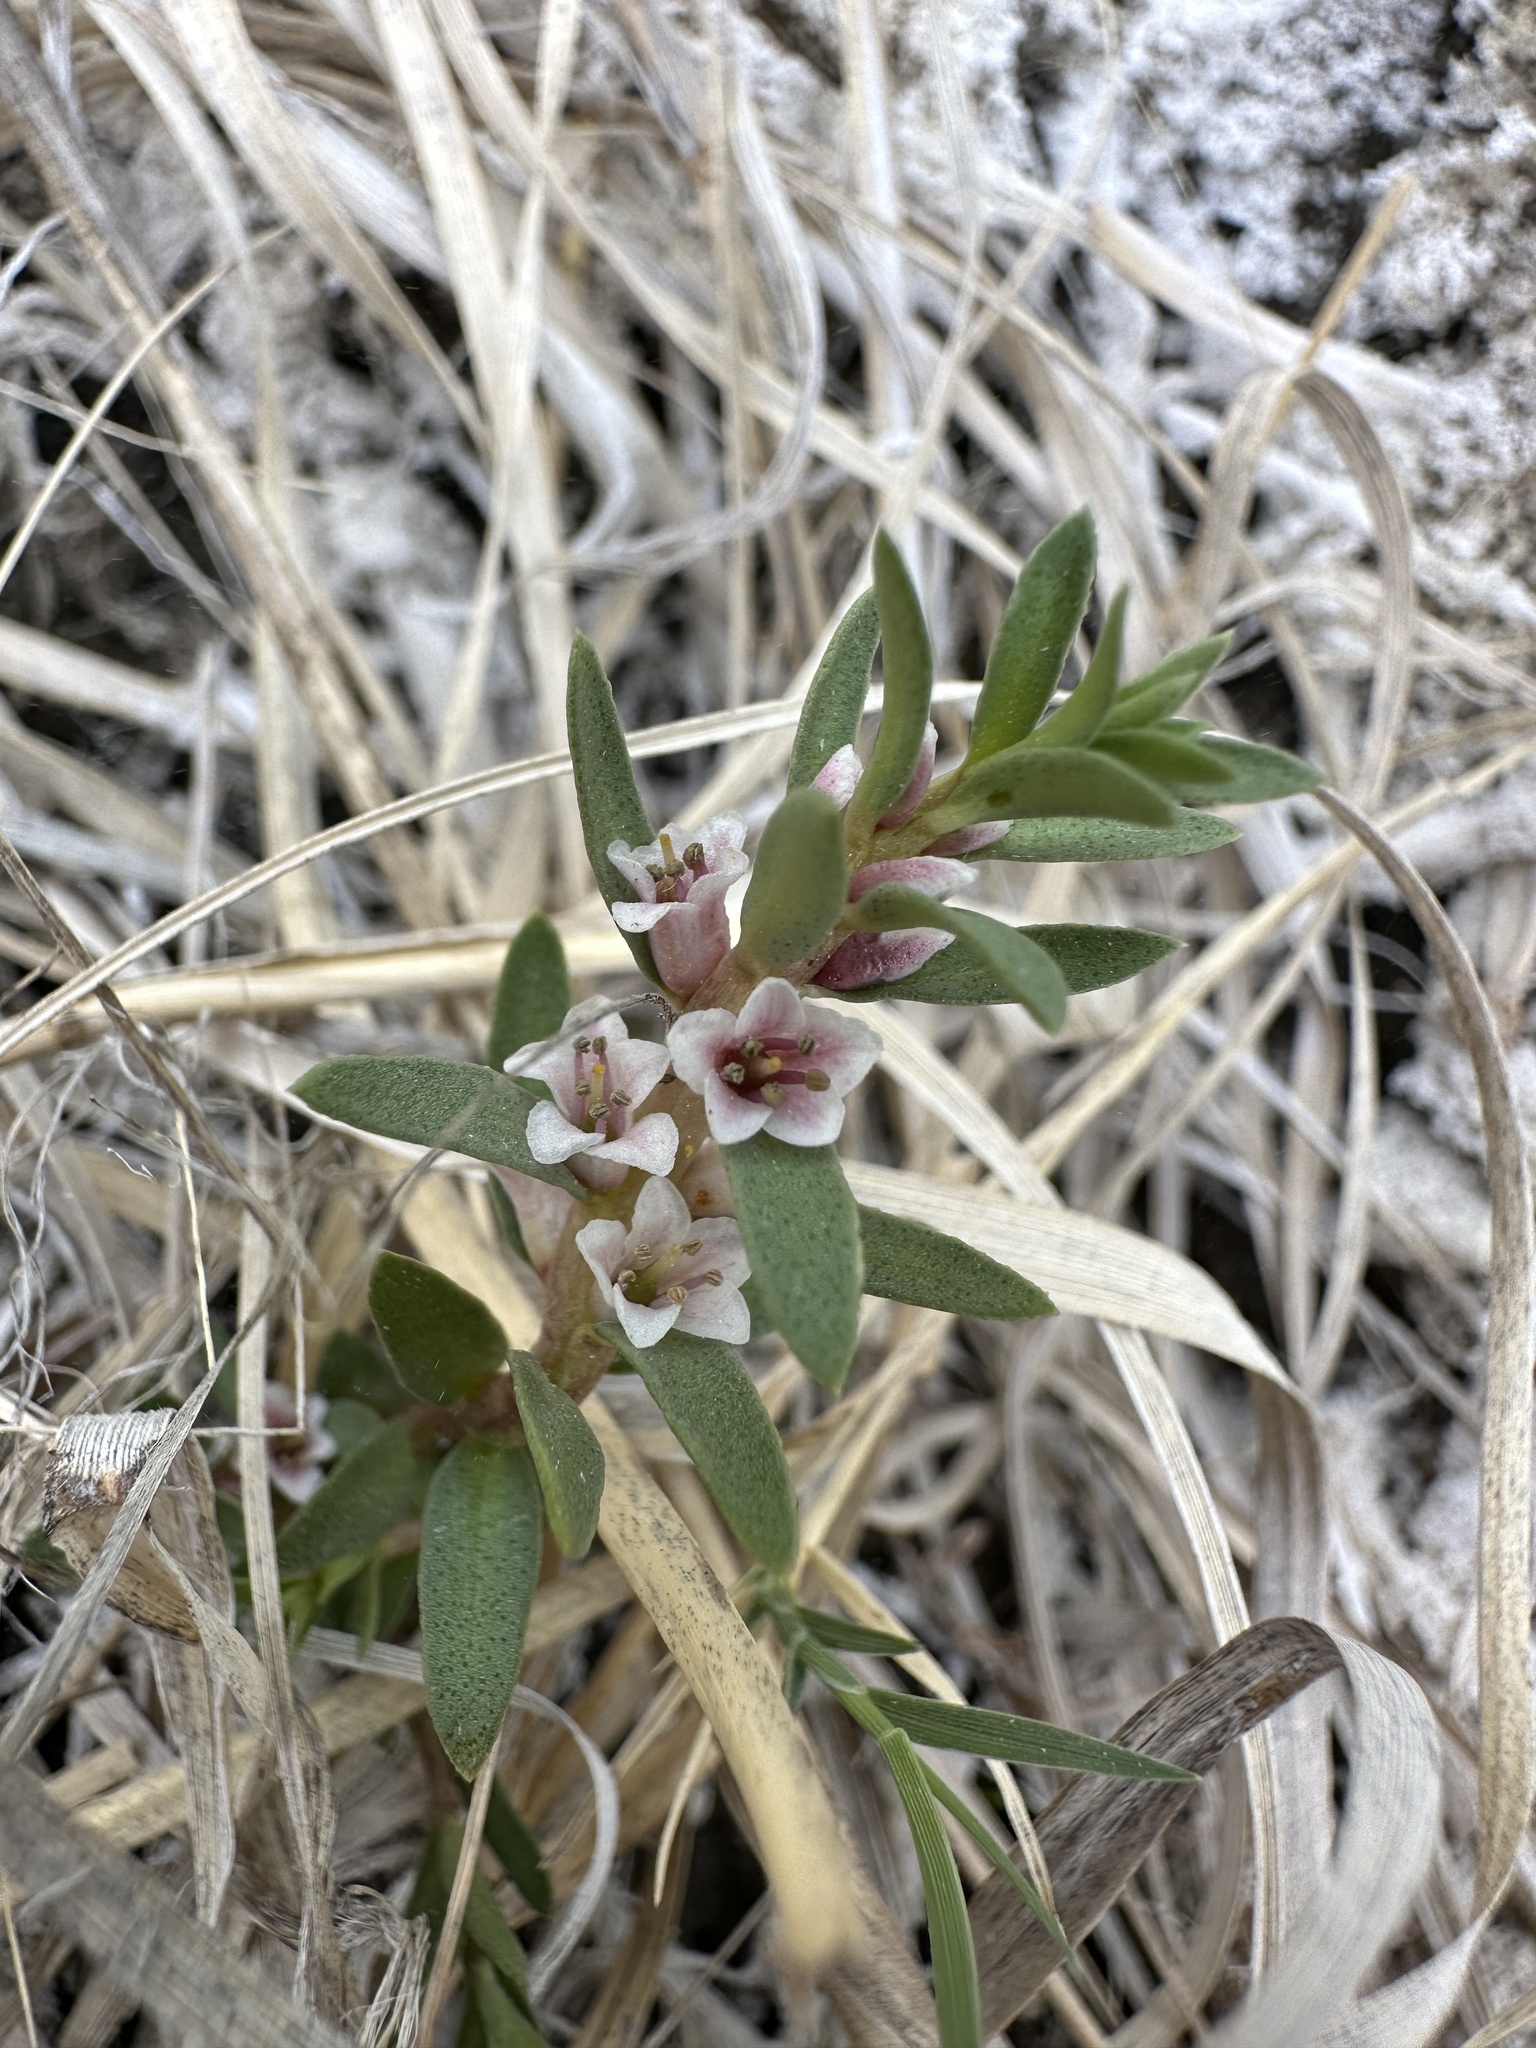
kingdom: Plantae
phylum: Tracheophyta
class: Magnoliopsida
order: Ericales
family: Primulaceae
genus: Lysimachia
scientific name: Lysimachia maritima
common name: Sea milkwort
